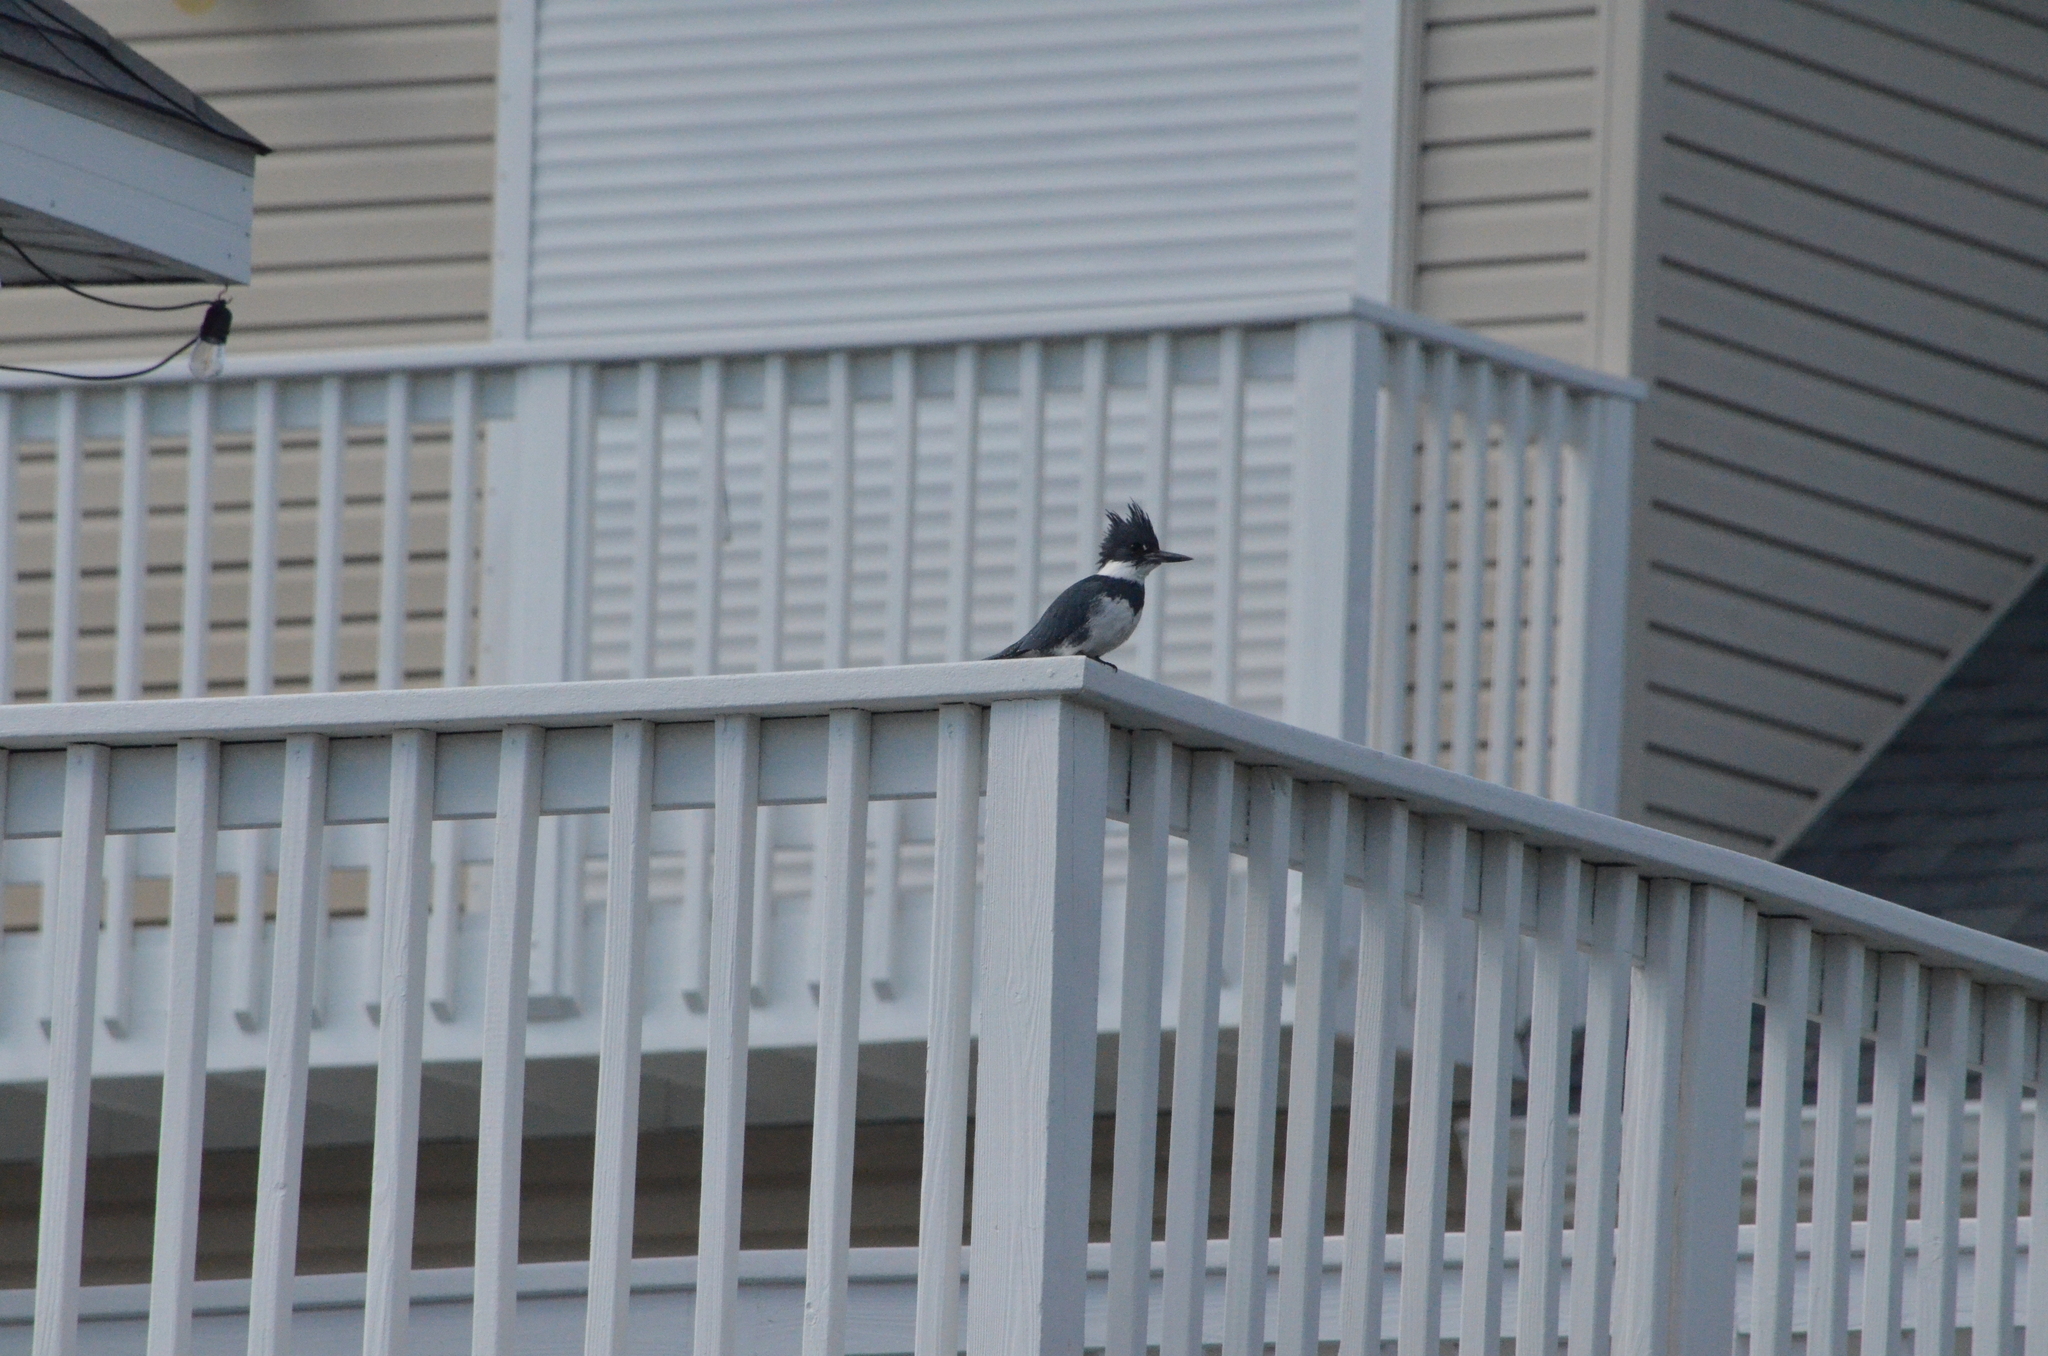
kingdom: Animalia
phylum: Chordata
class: Aves
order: Coraciiformes
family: Alcedinidae
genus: Megaceryle
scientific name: Megaceryle alcyon
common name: Belted kingfisher
